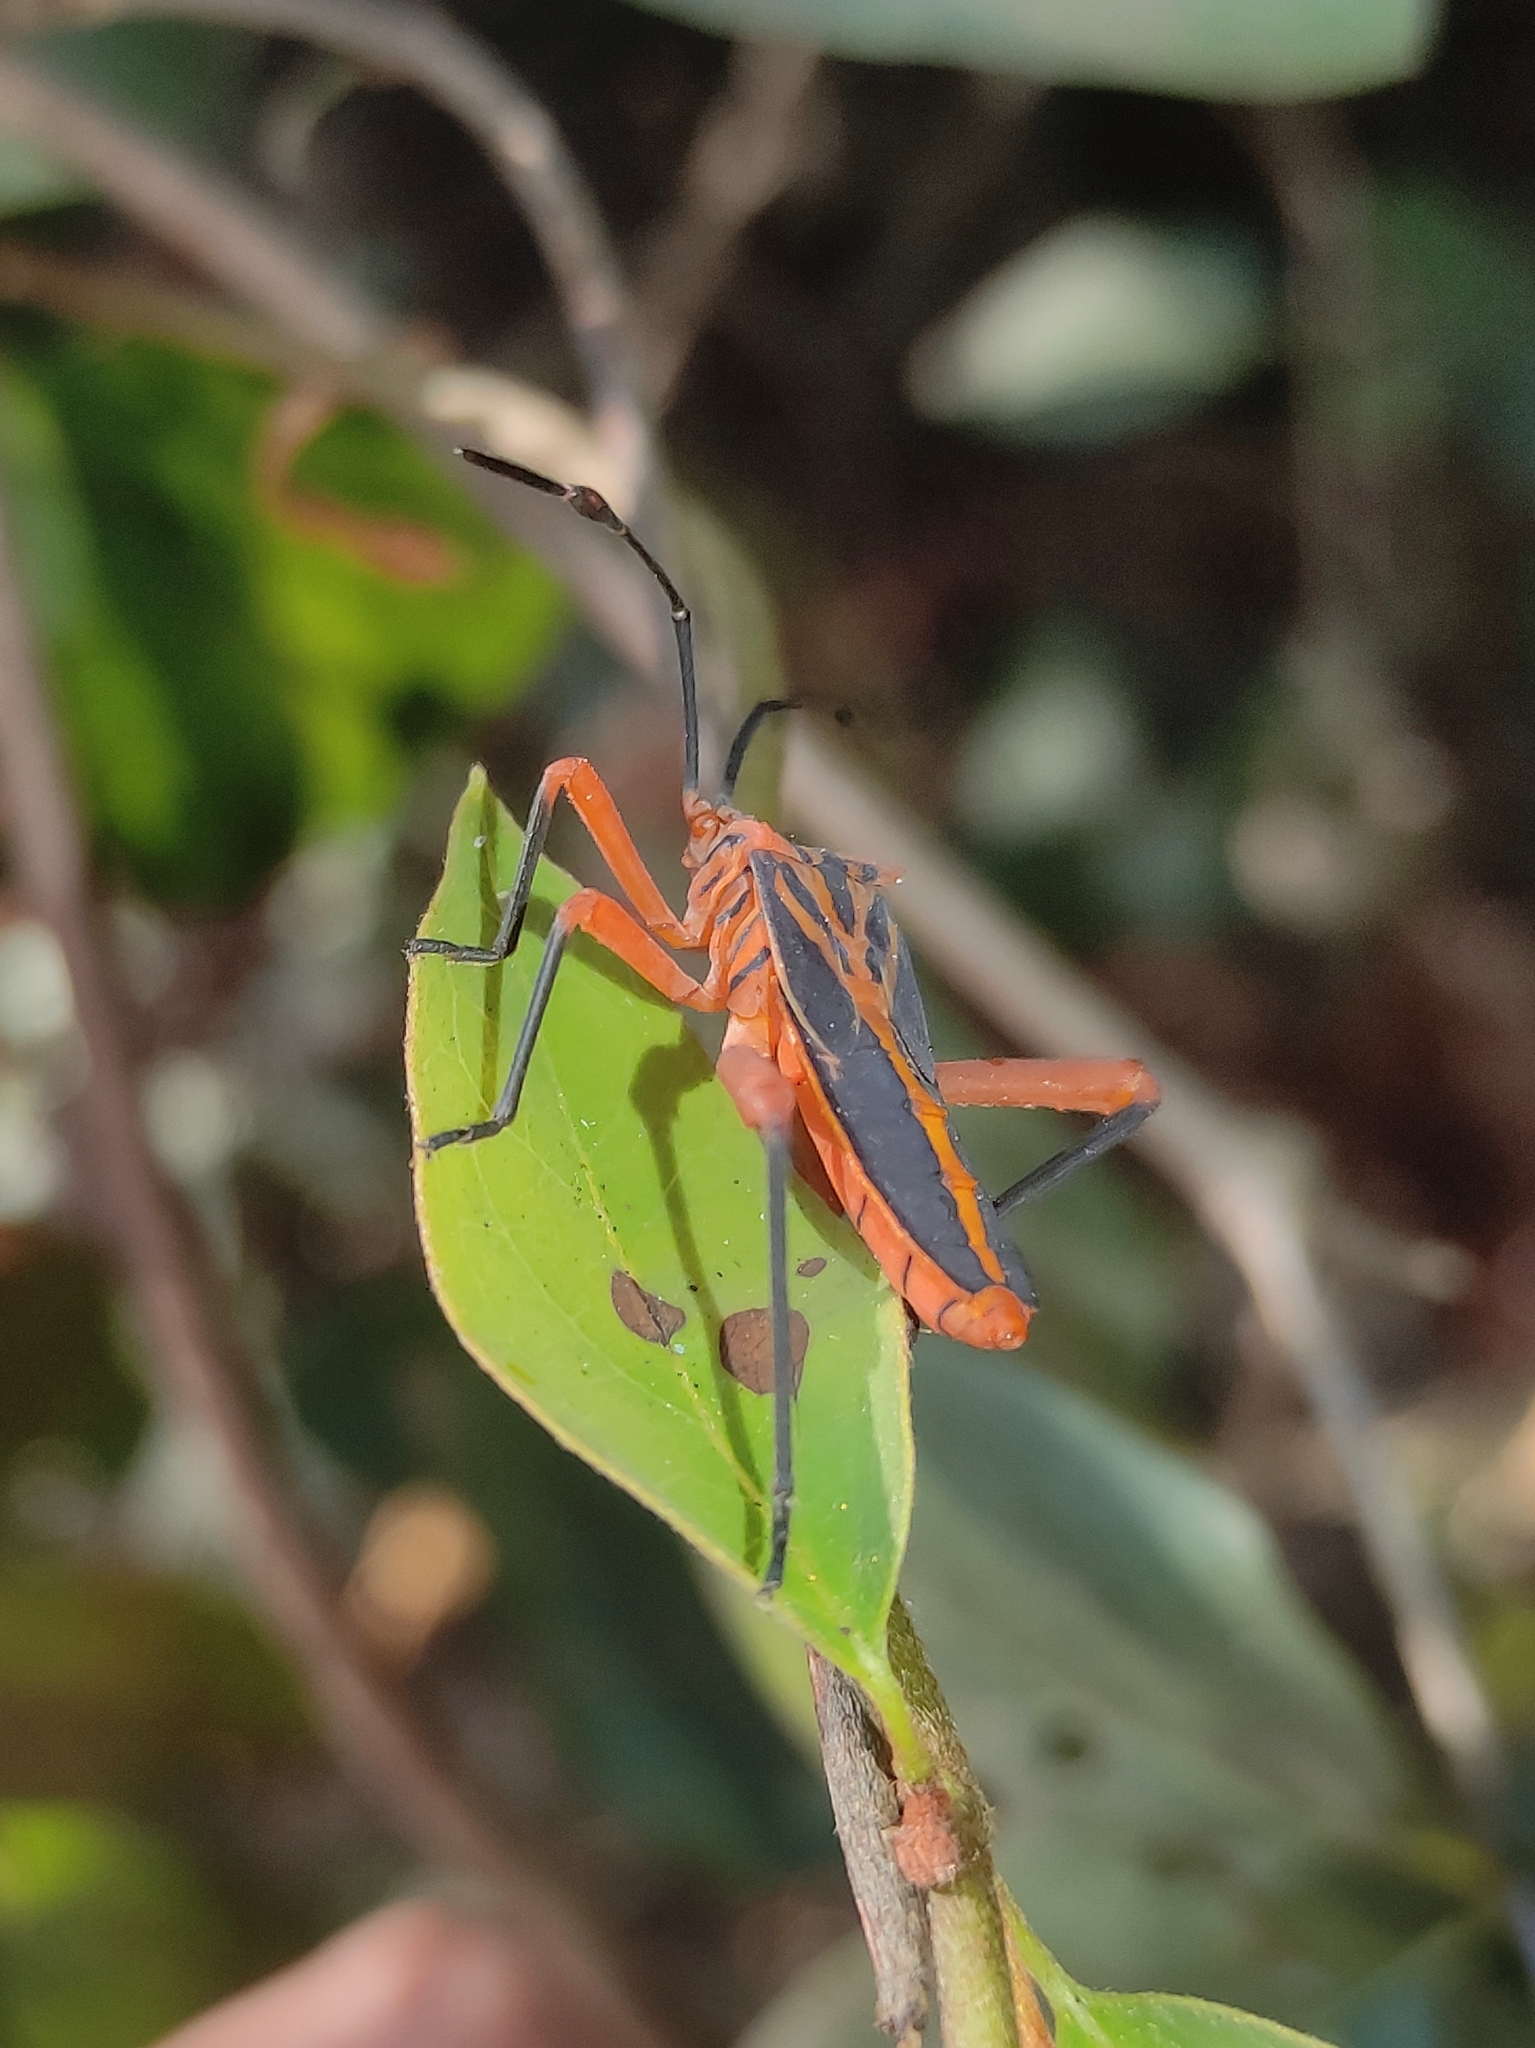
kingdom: Animalia
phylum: Arthropoda
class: Insecta
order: Hemiptera
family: Coreidae
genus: Machtima
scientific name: Machtima crucigera
